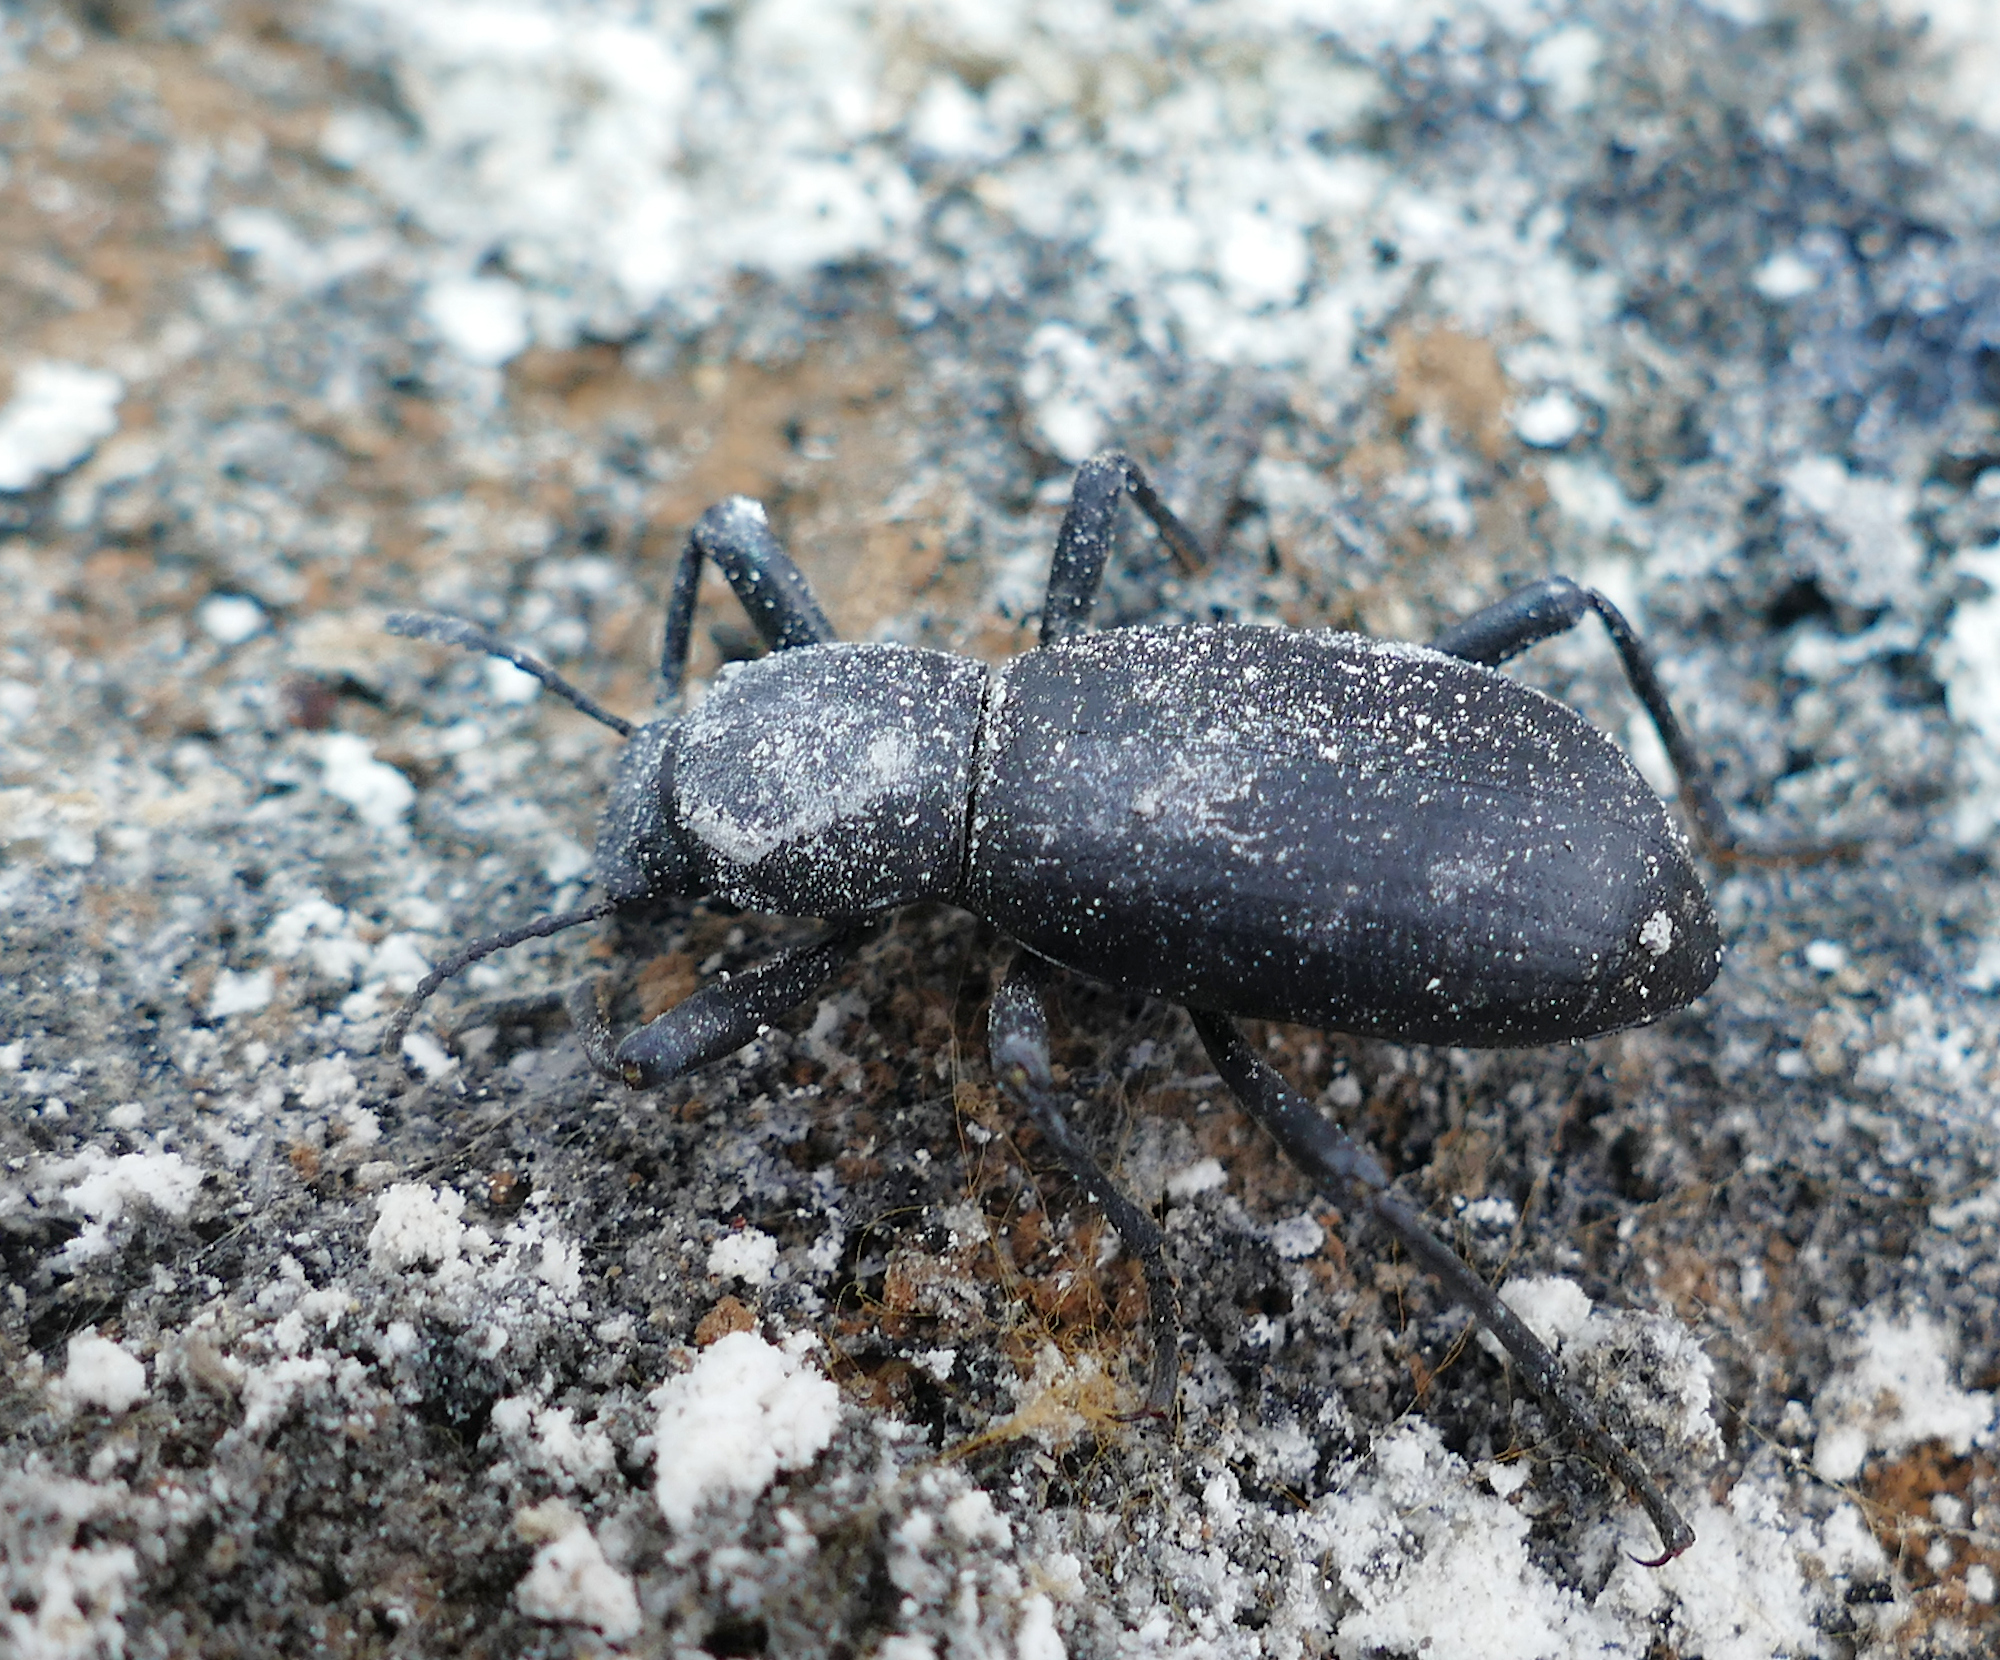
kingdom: Animalia
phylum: Arthropoda
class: Insecta
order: Coleoptera
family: Tenebrionidae
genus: Coelocnemis
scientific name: Coelocnemis punctata
